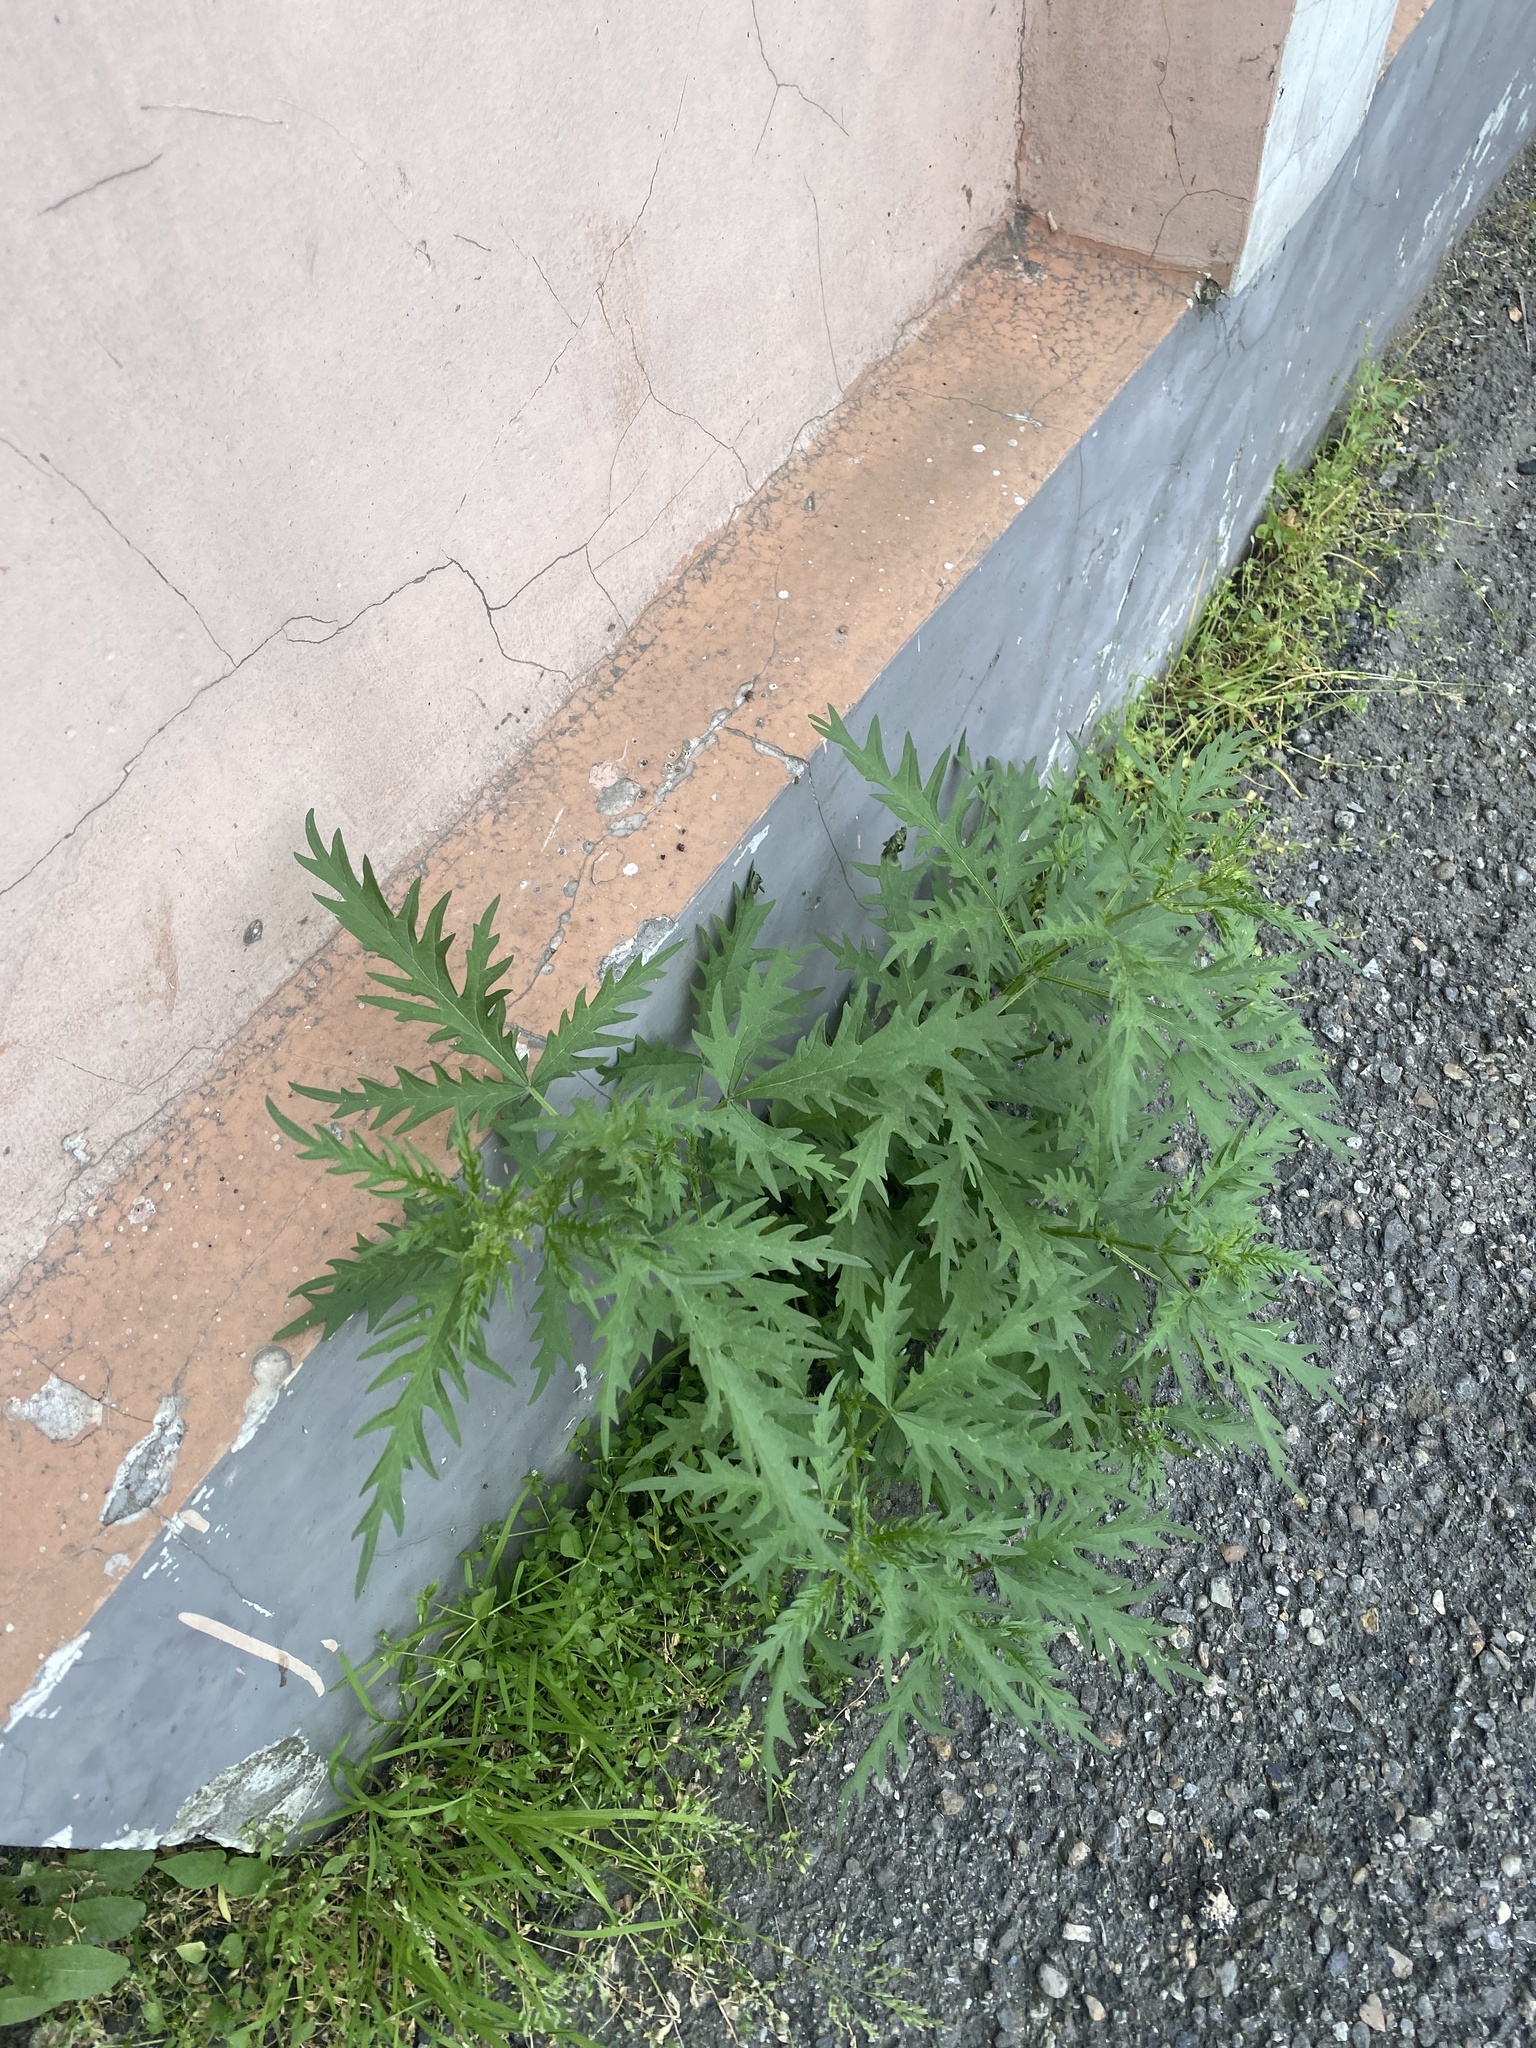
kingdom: Plantae
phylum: Tracheophyta
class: Magnoliopsida
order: Rosales
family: Urticaceae
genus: Urtica
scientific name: Urtica cannabina
